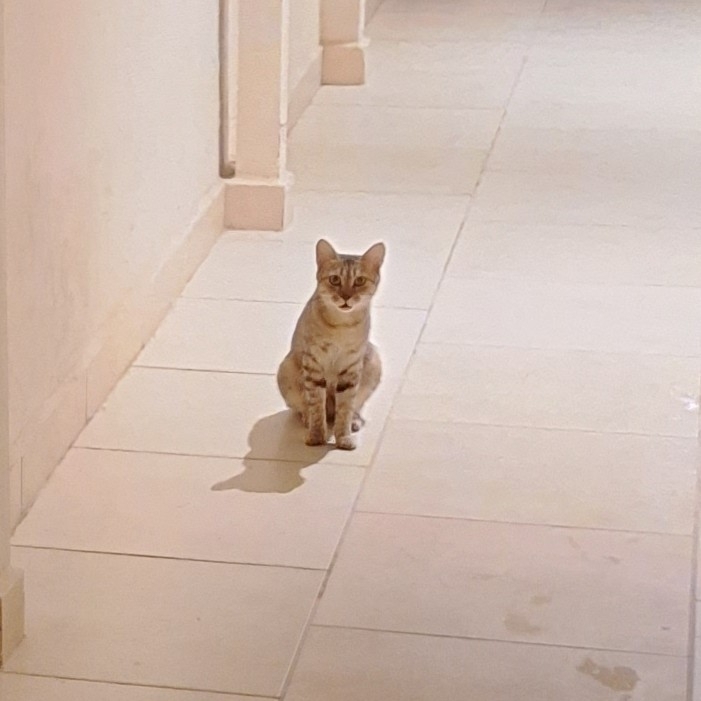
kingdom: Animalia
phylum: Chordata
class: Mammalia
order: Carnivora
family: Felidae
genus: Felis
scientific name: Felis catus
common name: Domestic cat
